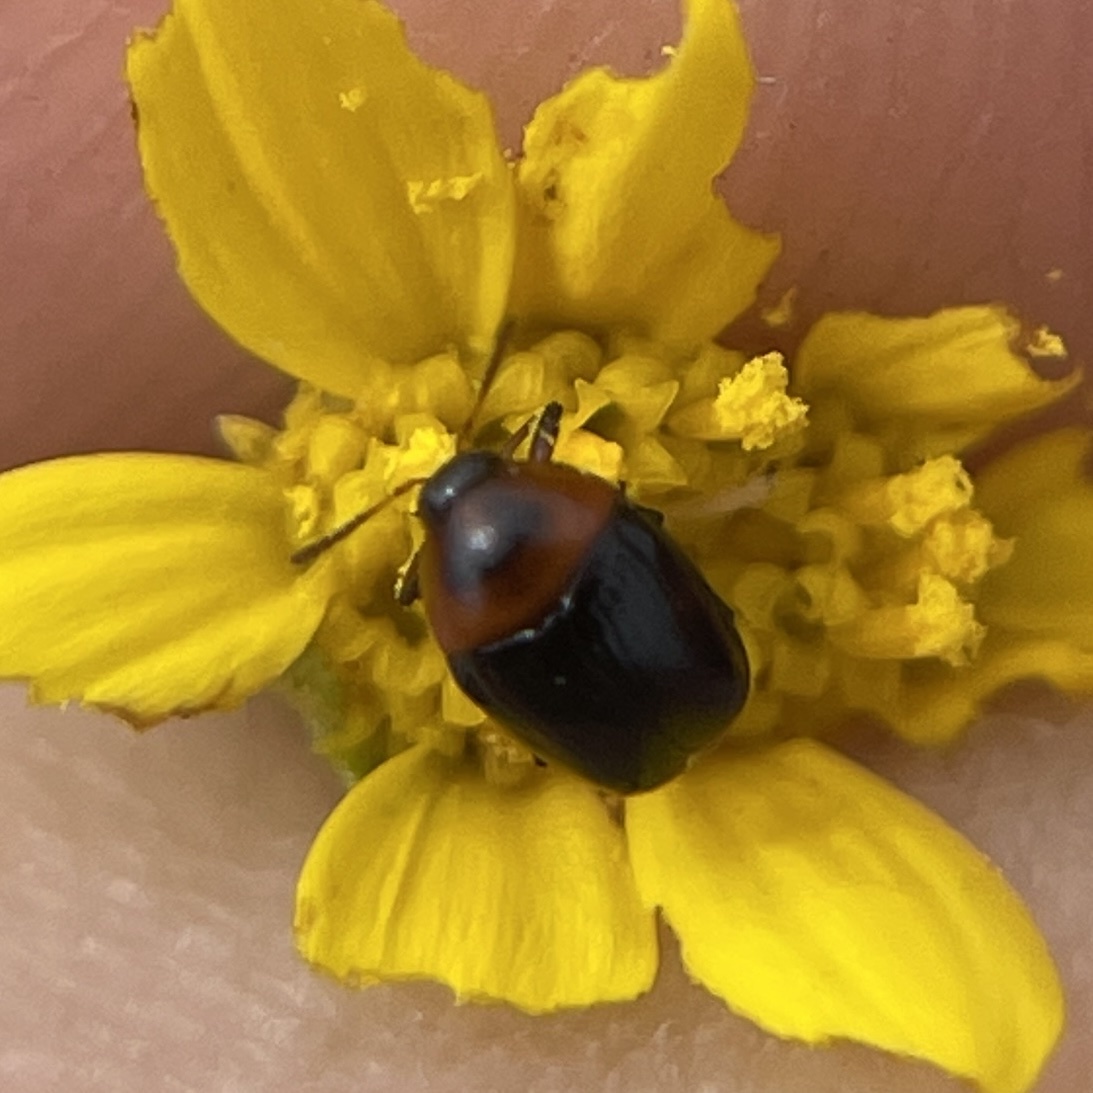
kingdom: Animalia
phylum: Arthropoda
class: Insecta
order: Coleoptera
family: Chrysomelidae
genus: Lexiphanes
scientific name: Lexiphanes teapensis
